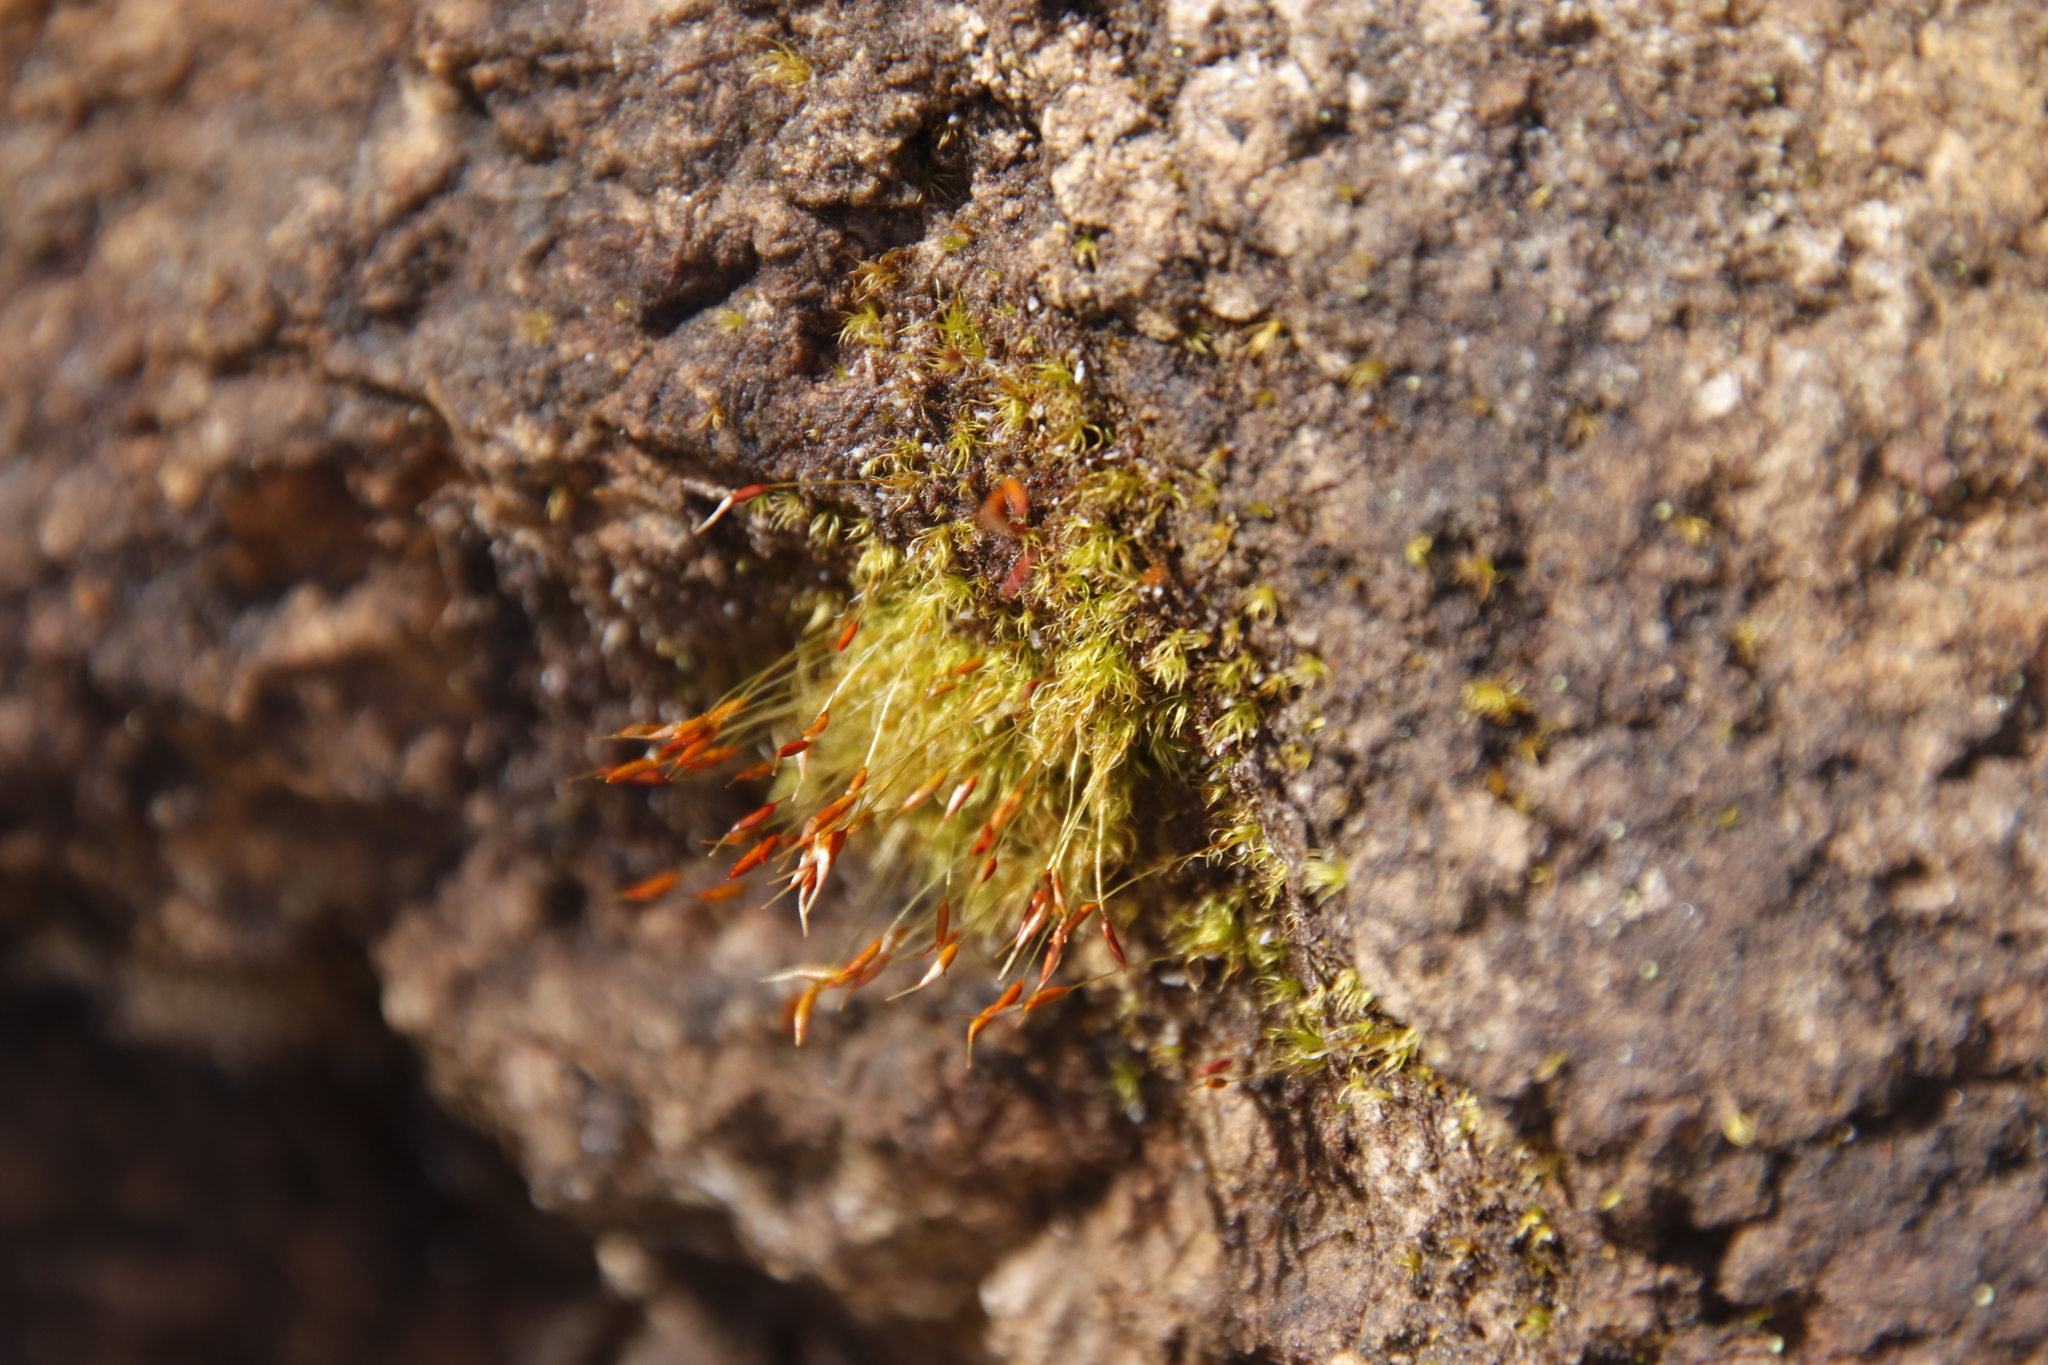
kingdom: Plantae
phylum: Bryophyta
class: Bryopsida
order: Dicranales
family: Ditrichaceae
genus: Ditrichum
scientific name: Ditrichum difficile
